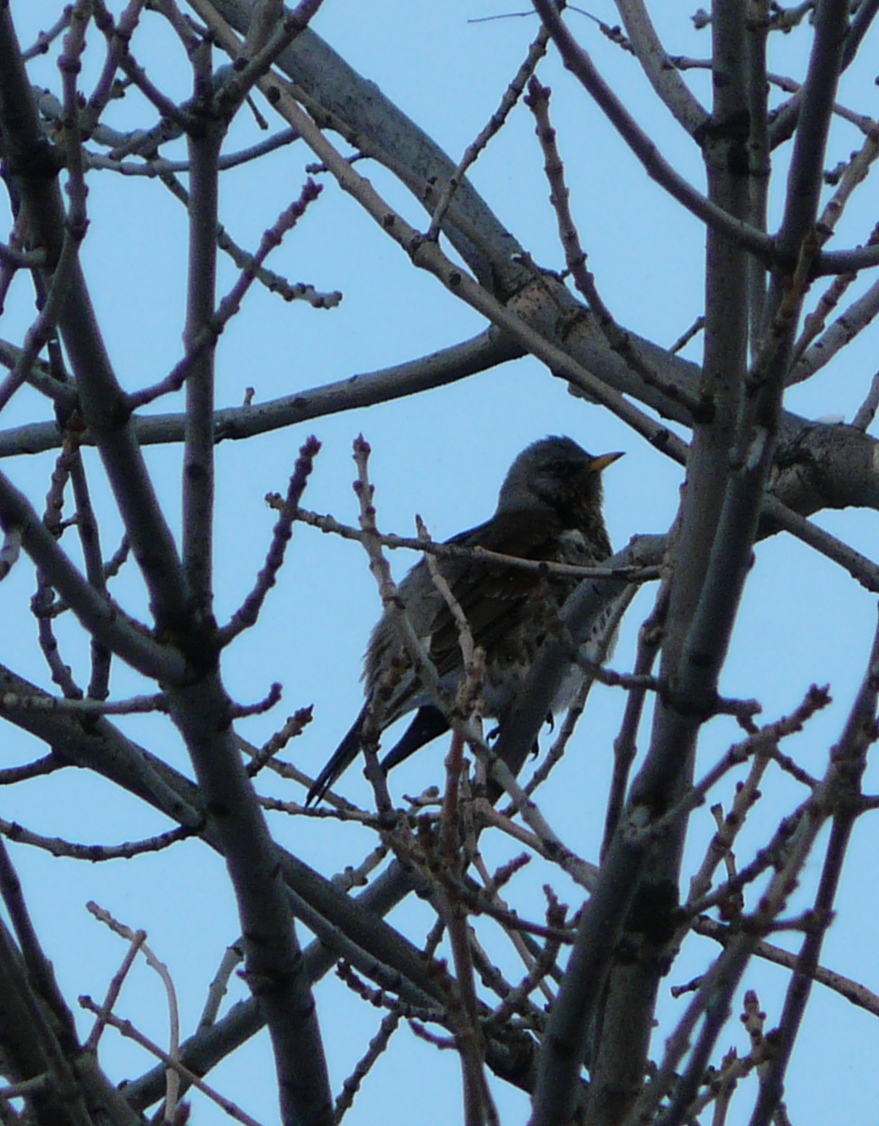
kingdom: Animalia
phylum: Chordata
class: Aves
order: Passeriformes
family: Turdidae
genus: Turdus
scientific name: Turdus pilaris
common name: Fieldfare
